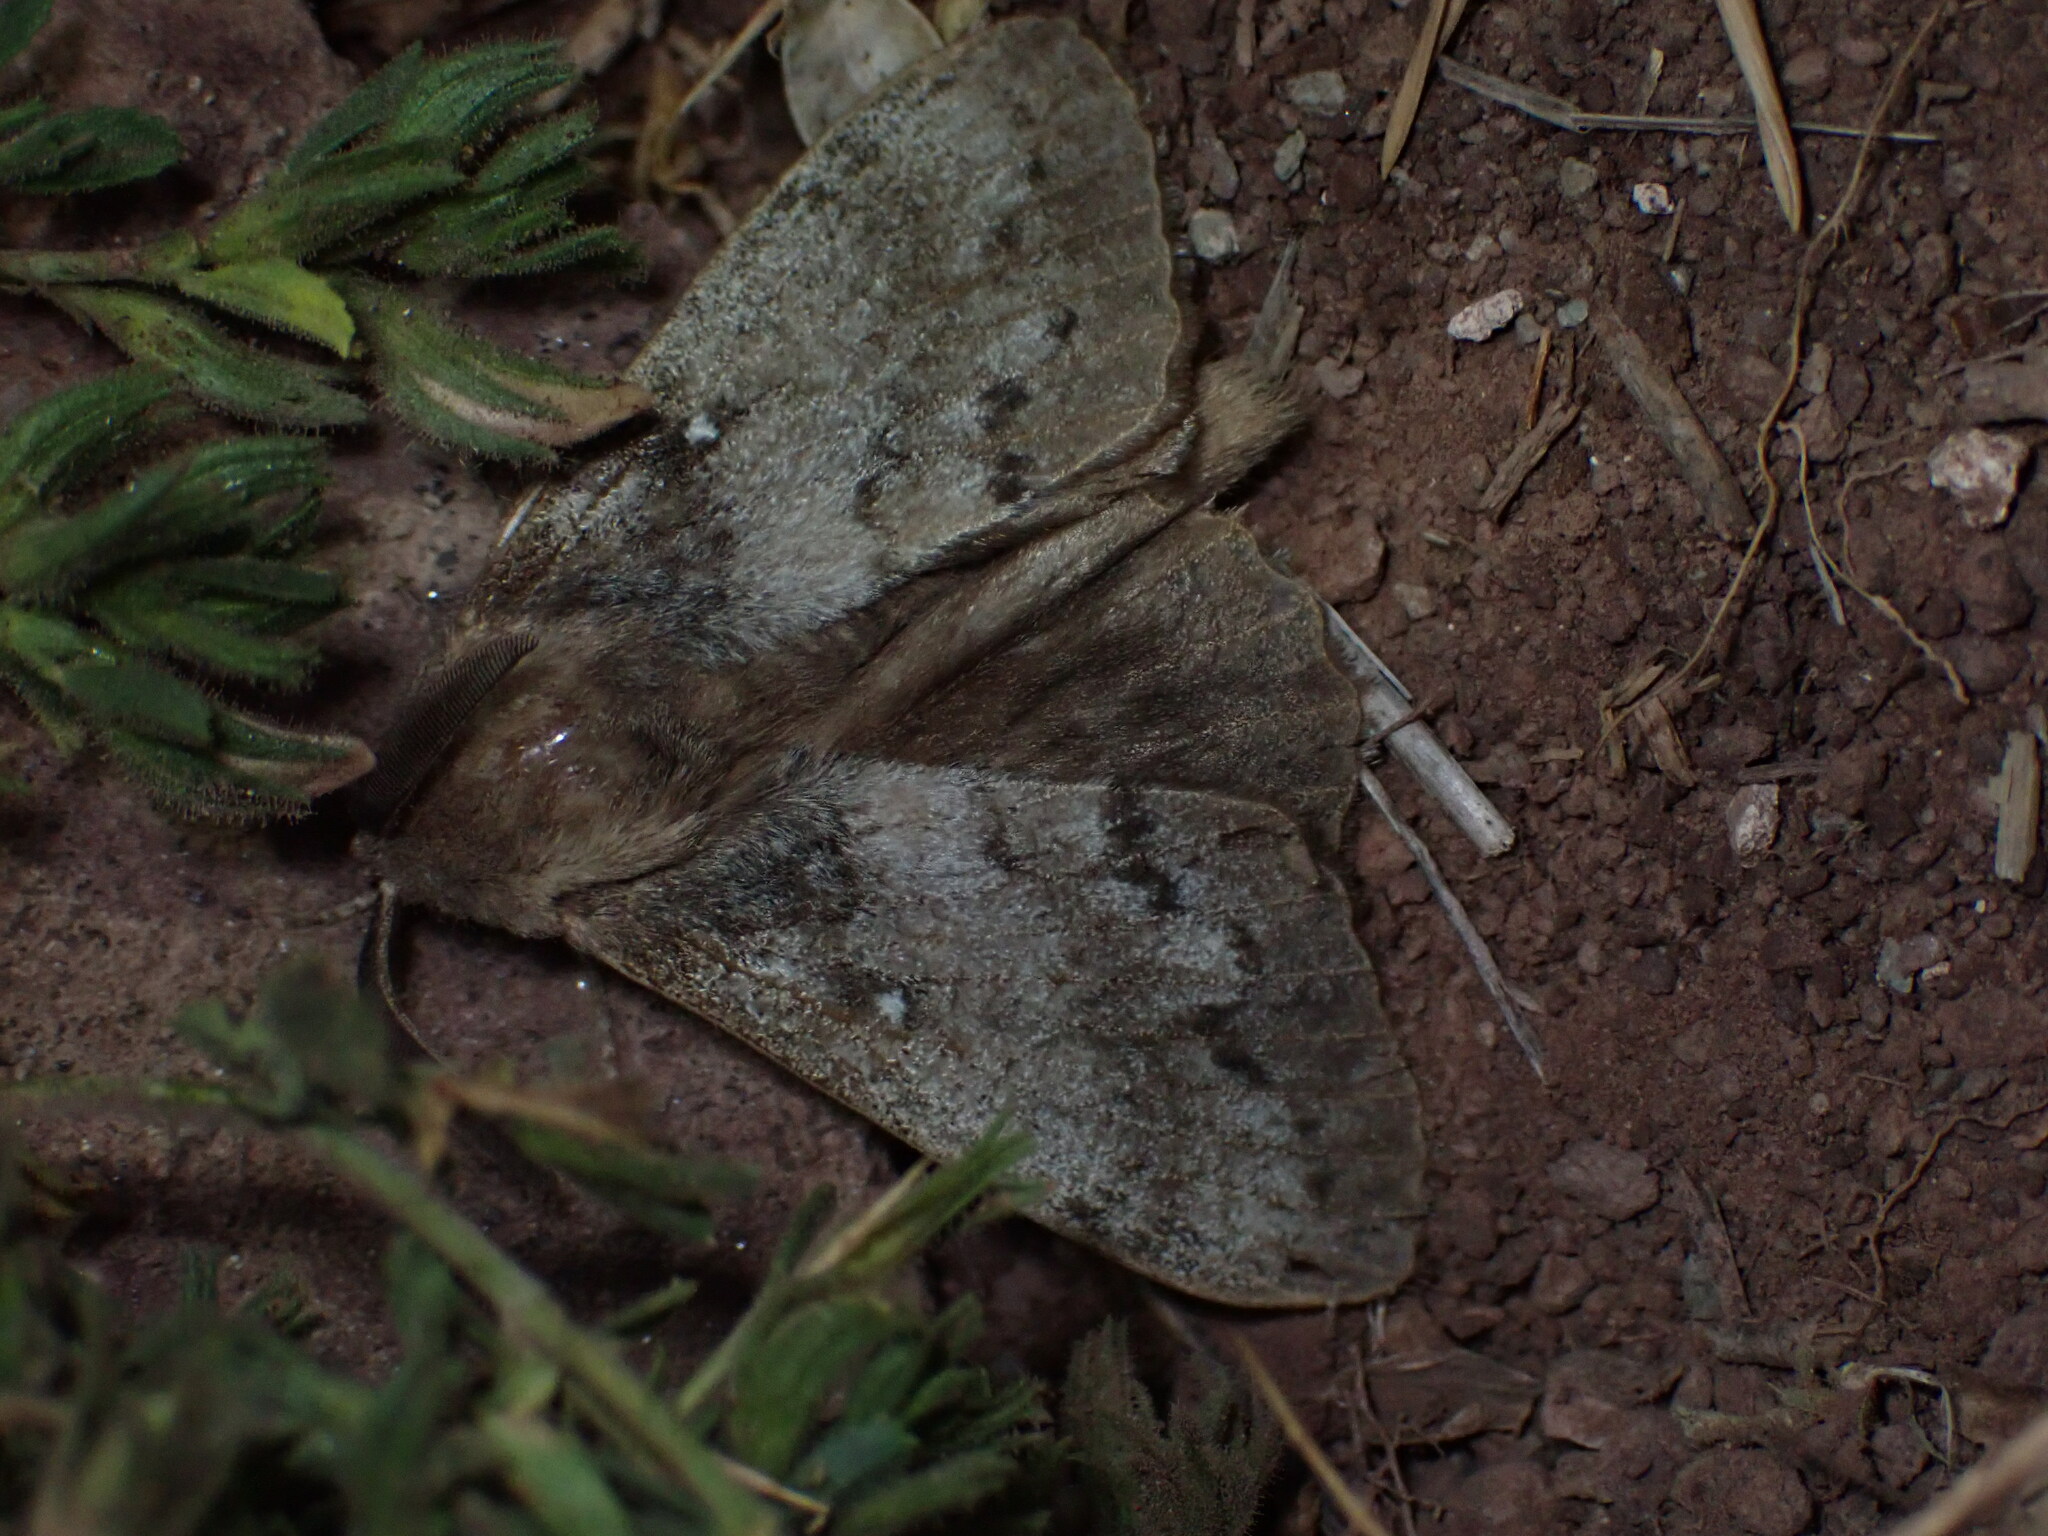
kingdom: Animalia
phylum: Arthropoda
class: Insecta
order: Lepidoptera
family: Lasiocampidae
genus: Dendrolimus
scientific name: Dendrolimus pini
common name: Pine-tree lappet
